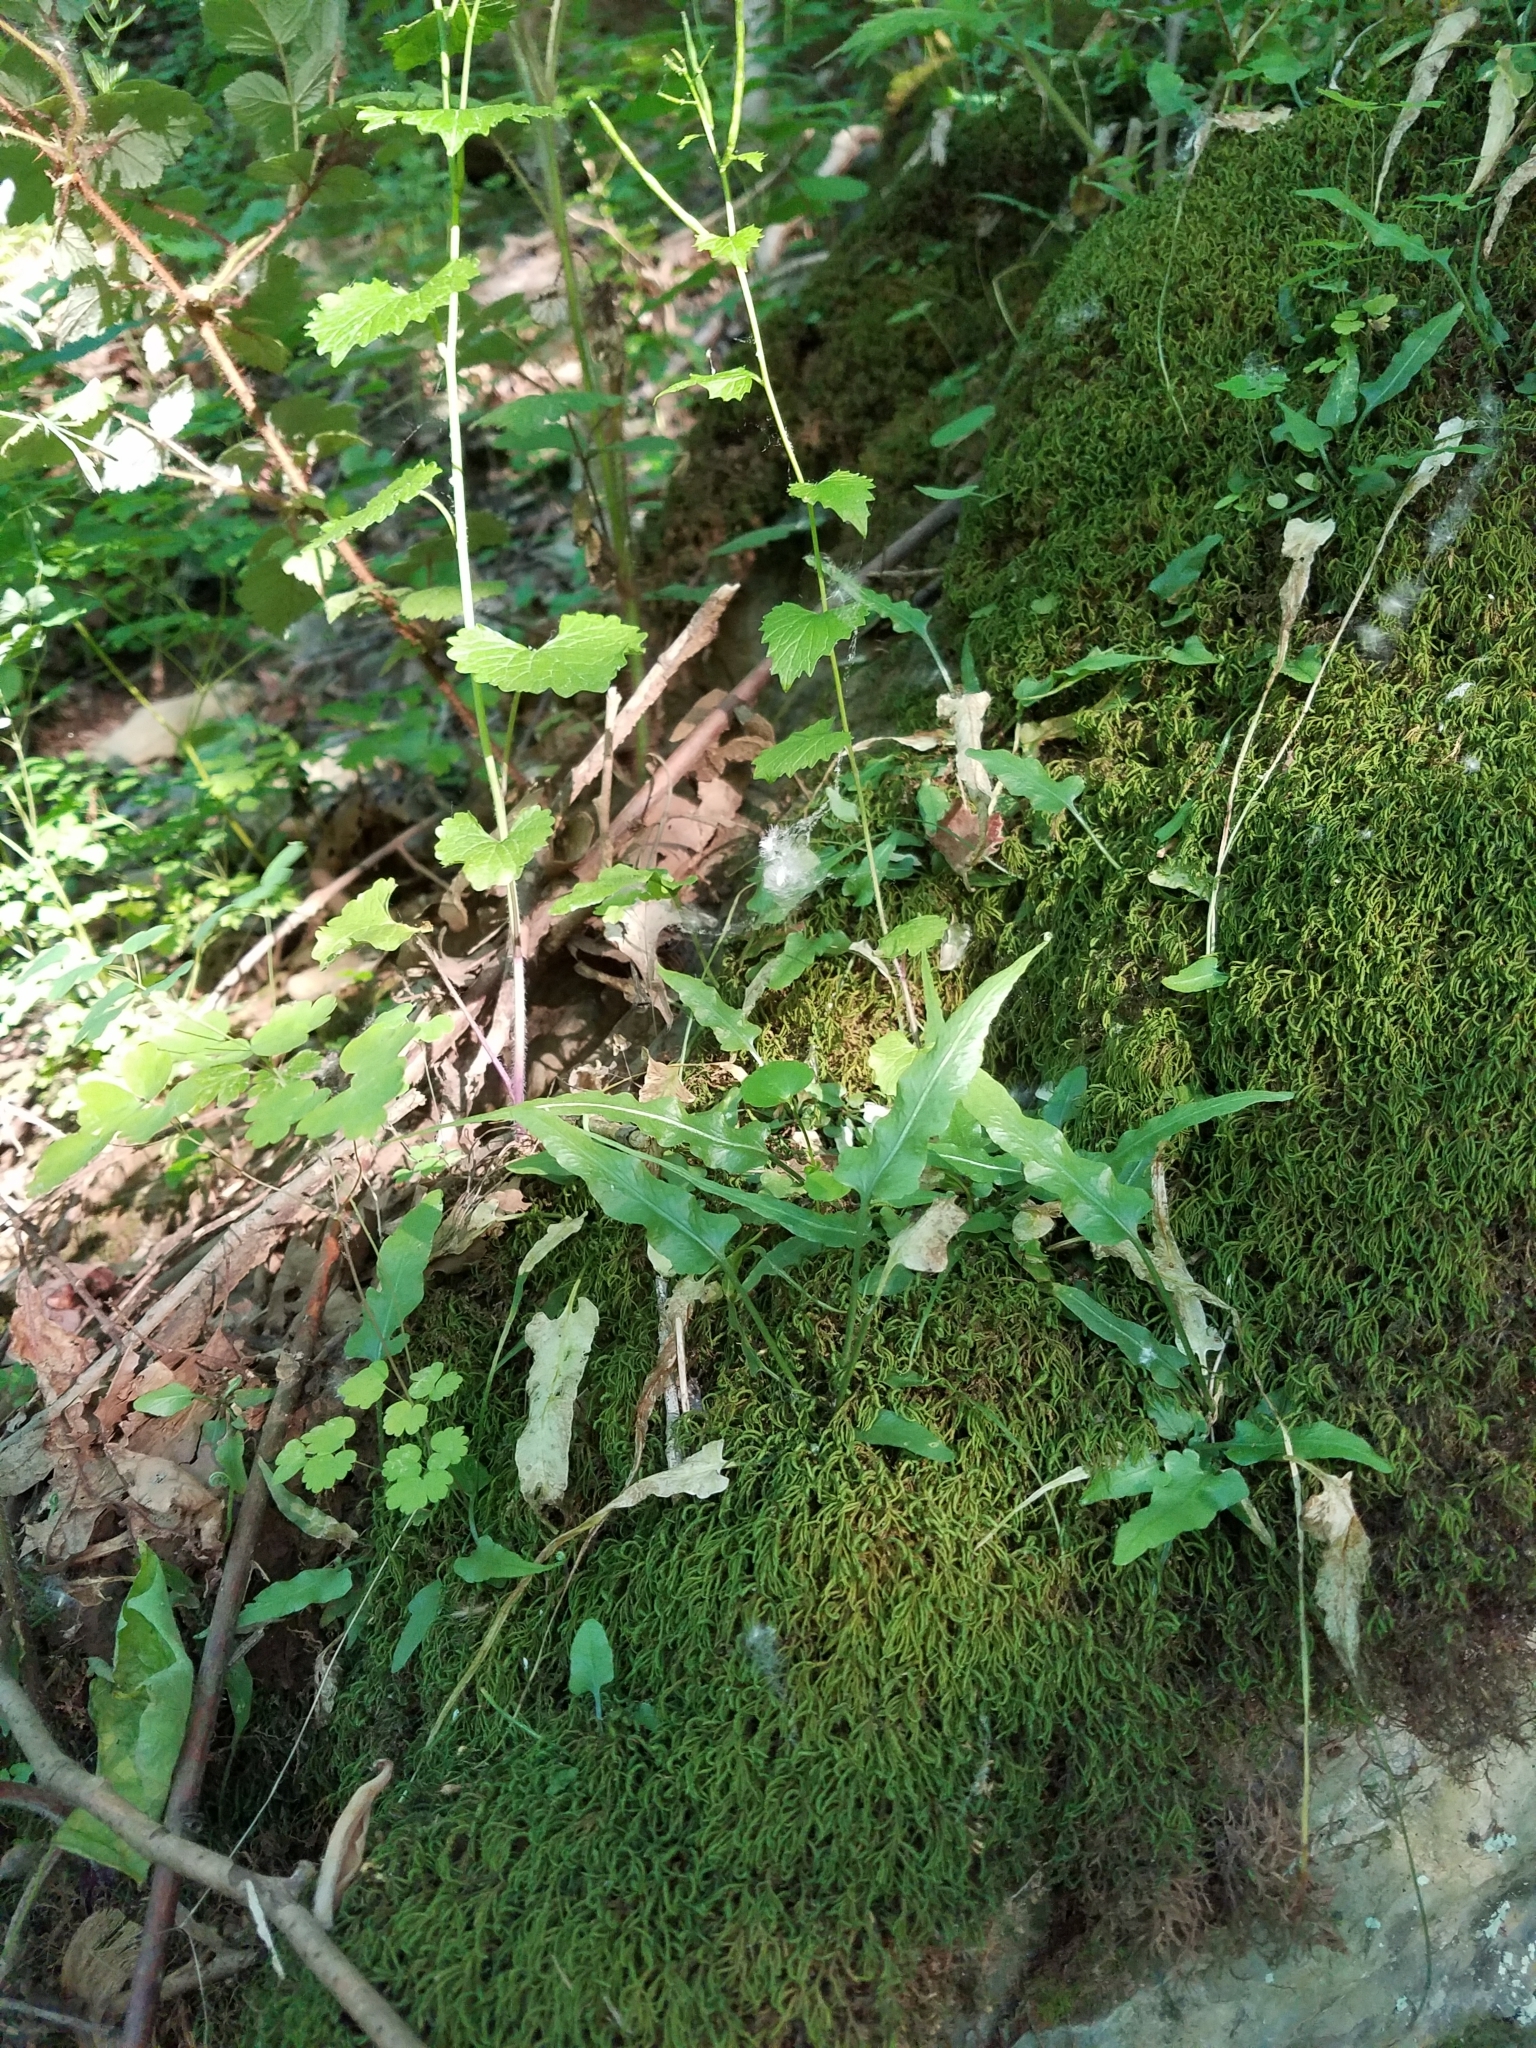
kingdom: Plantae
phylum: Tracheophyta
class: Polypodiopsida
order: Polypodiales
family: Aspleniaceae
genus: Asplenium
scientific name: Asplenium rhizophyllum
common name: Walking fern
